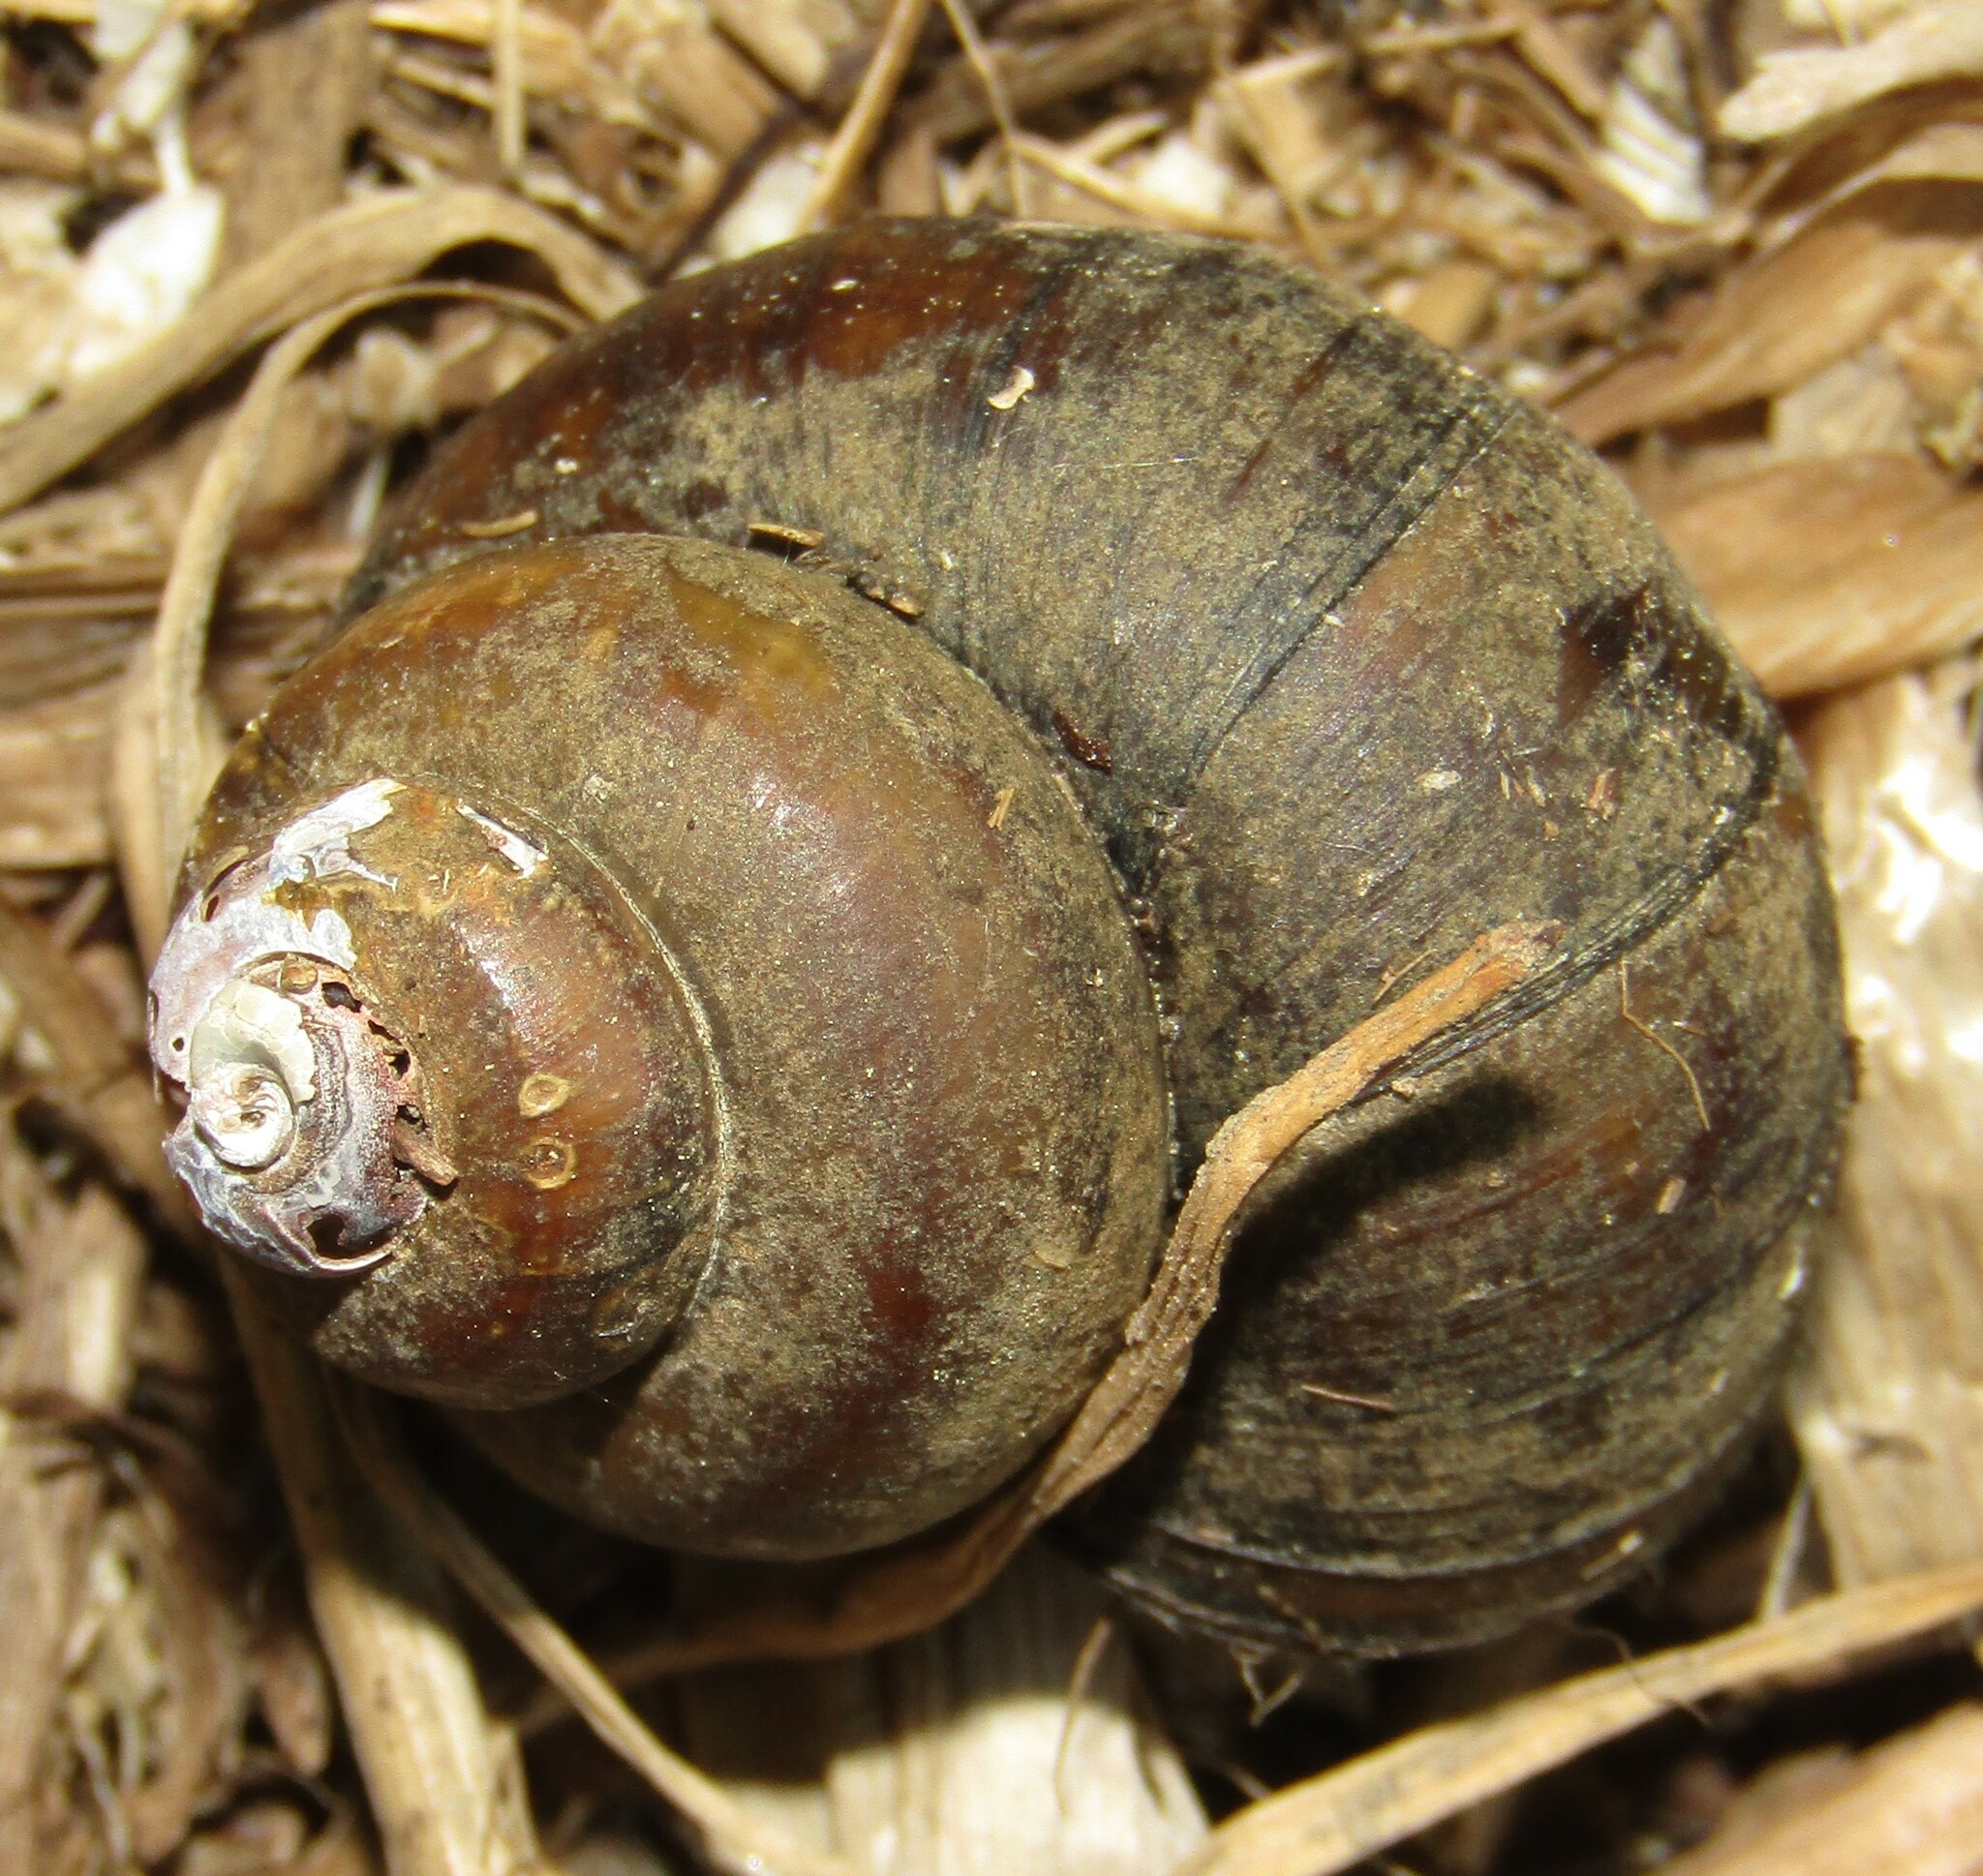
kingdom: Animalia
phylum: Mollusca
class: Gastropoda
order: Architaenioglossa
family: Viviparidae
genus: Viviparus
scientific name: Viviparus contectus
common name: Lister's river snail
